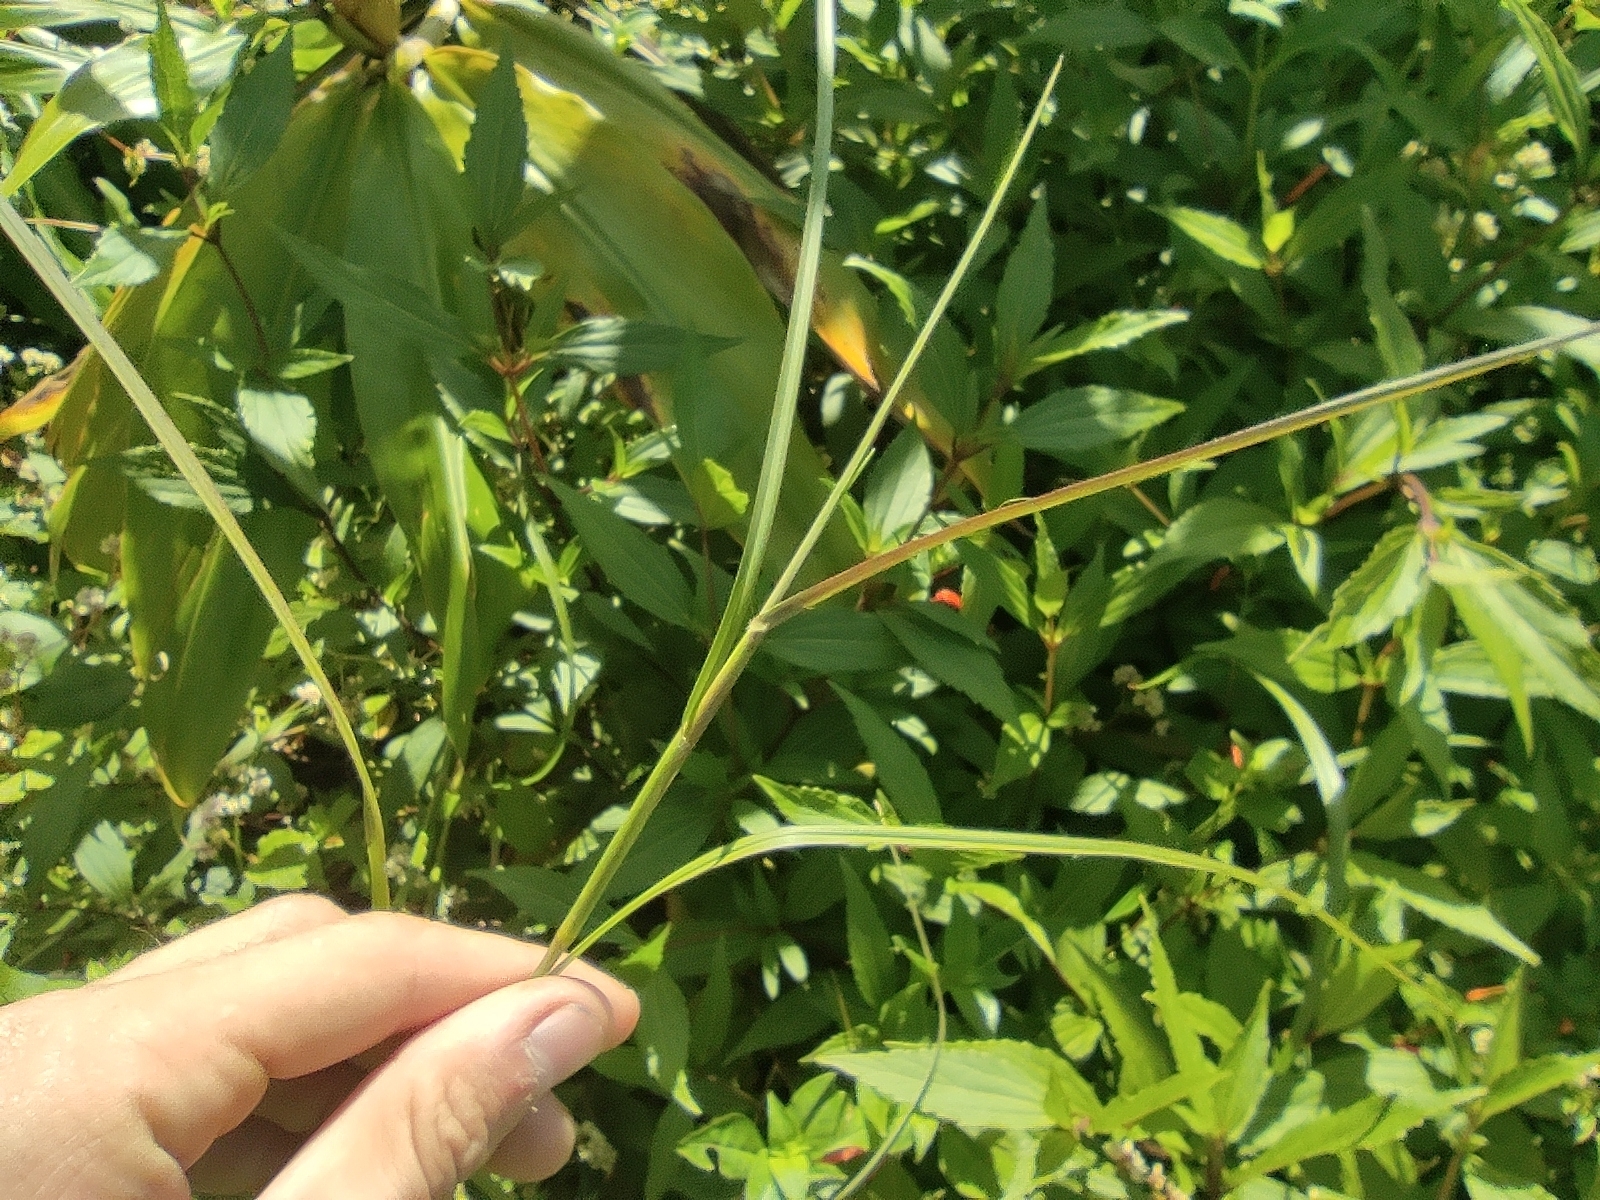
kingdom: Plantae
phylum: Tracheophyta
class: Liliopsida
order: Poales
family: Poaceae
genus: Hemarthria
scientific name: Hemarthria altissima
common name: African jointgrass
